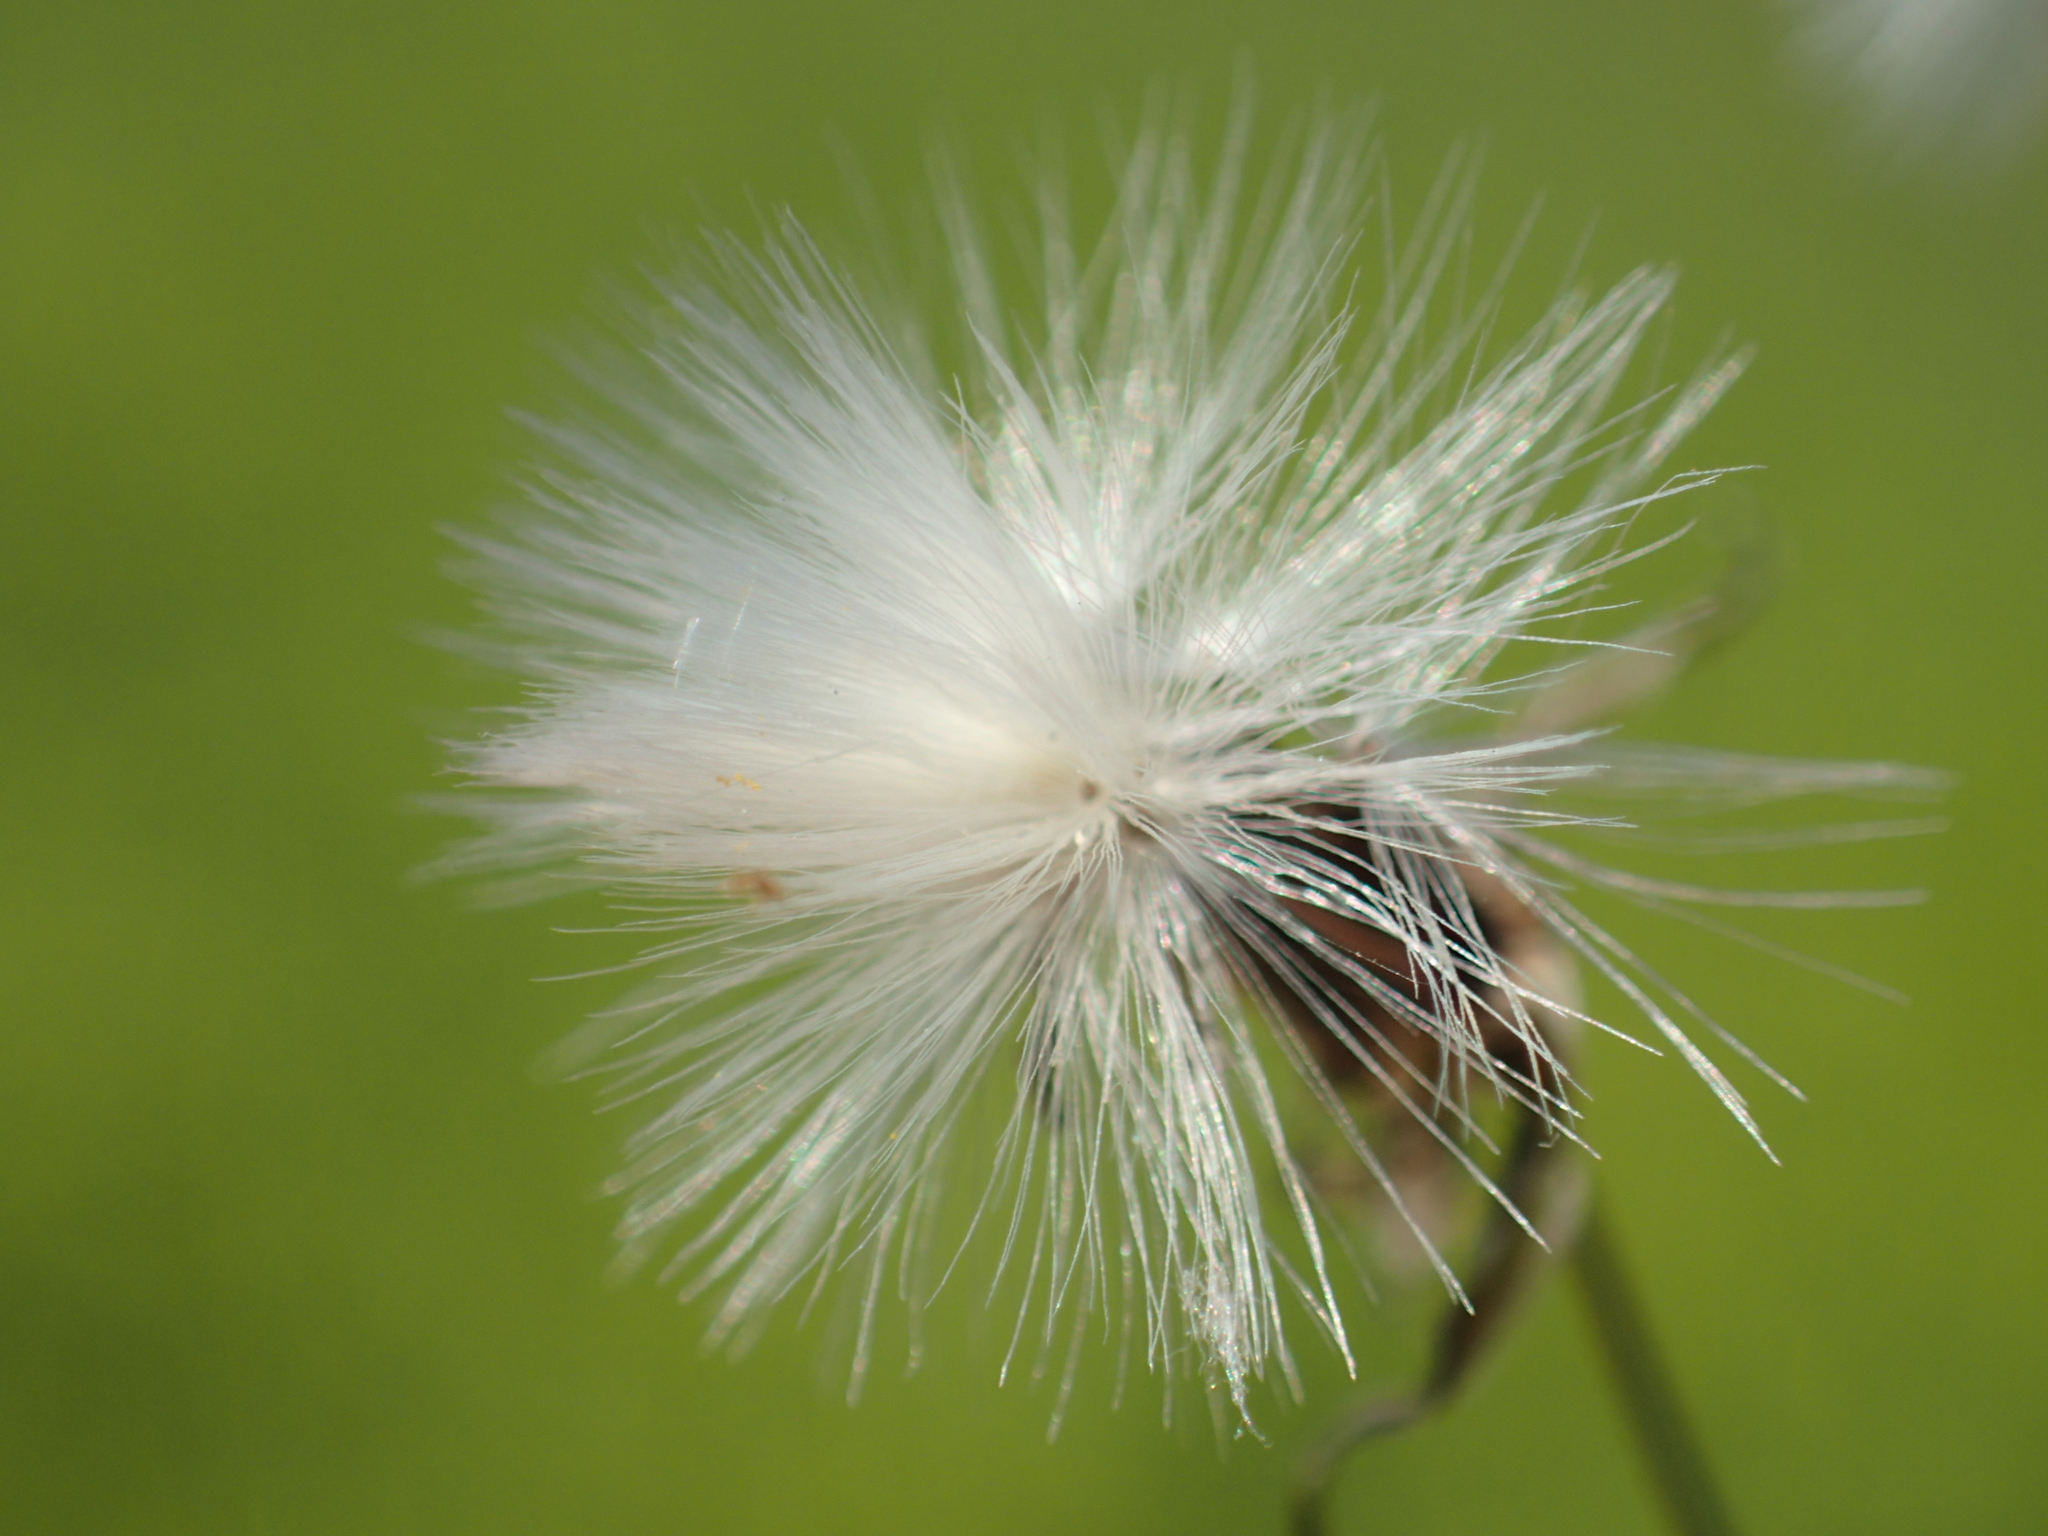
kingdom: Plantae
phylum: Tracheophyta
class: Magnoliopsida
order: Asterales
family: Asteraceae
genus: Ixeris
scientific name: Ixeris chinensis
